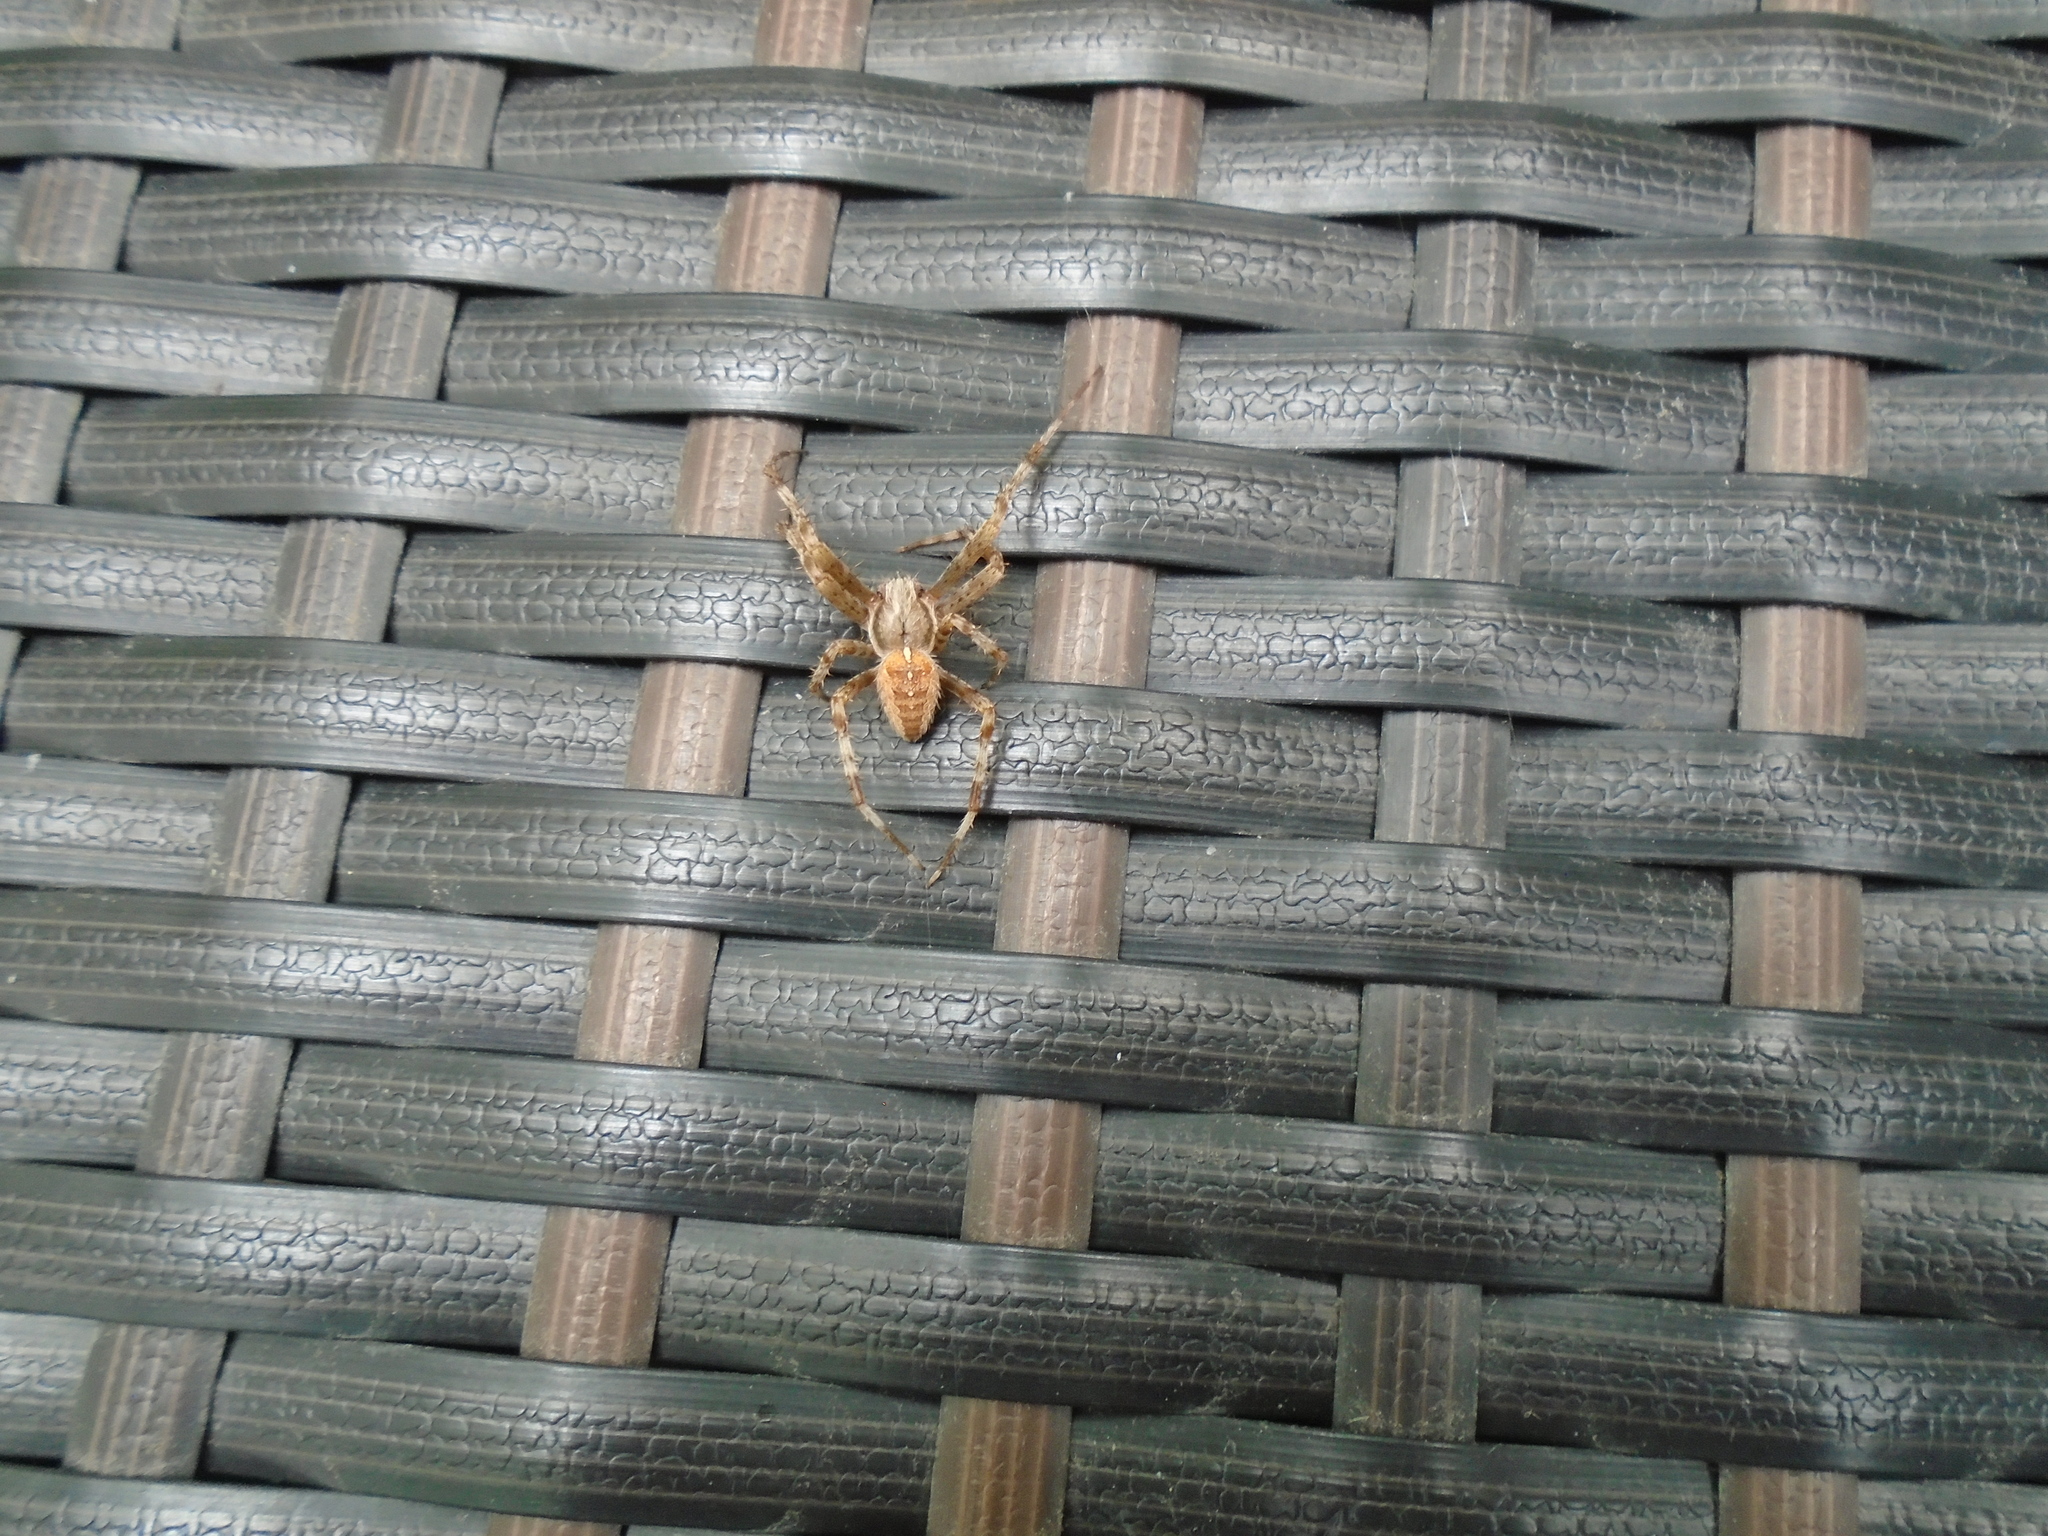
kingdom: Animalia
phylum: Arthropoda
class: Arachnida
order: Araneae
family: Araneidae
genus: Araneus
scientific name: Araneus diadematus
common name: Cross orbweaver
